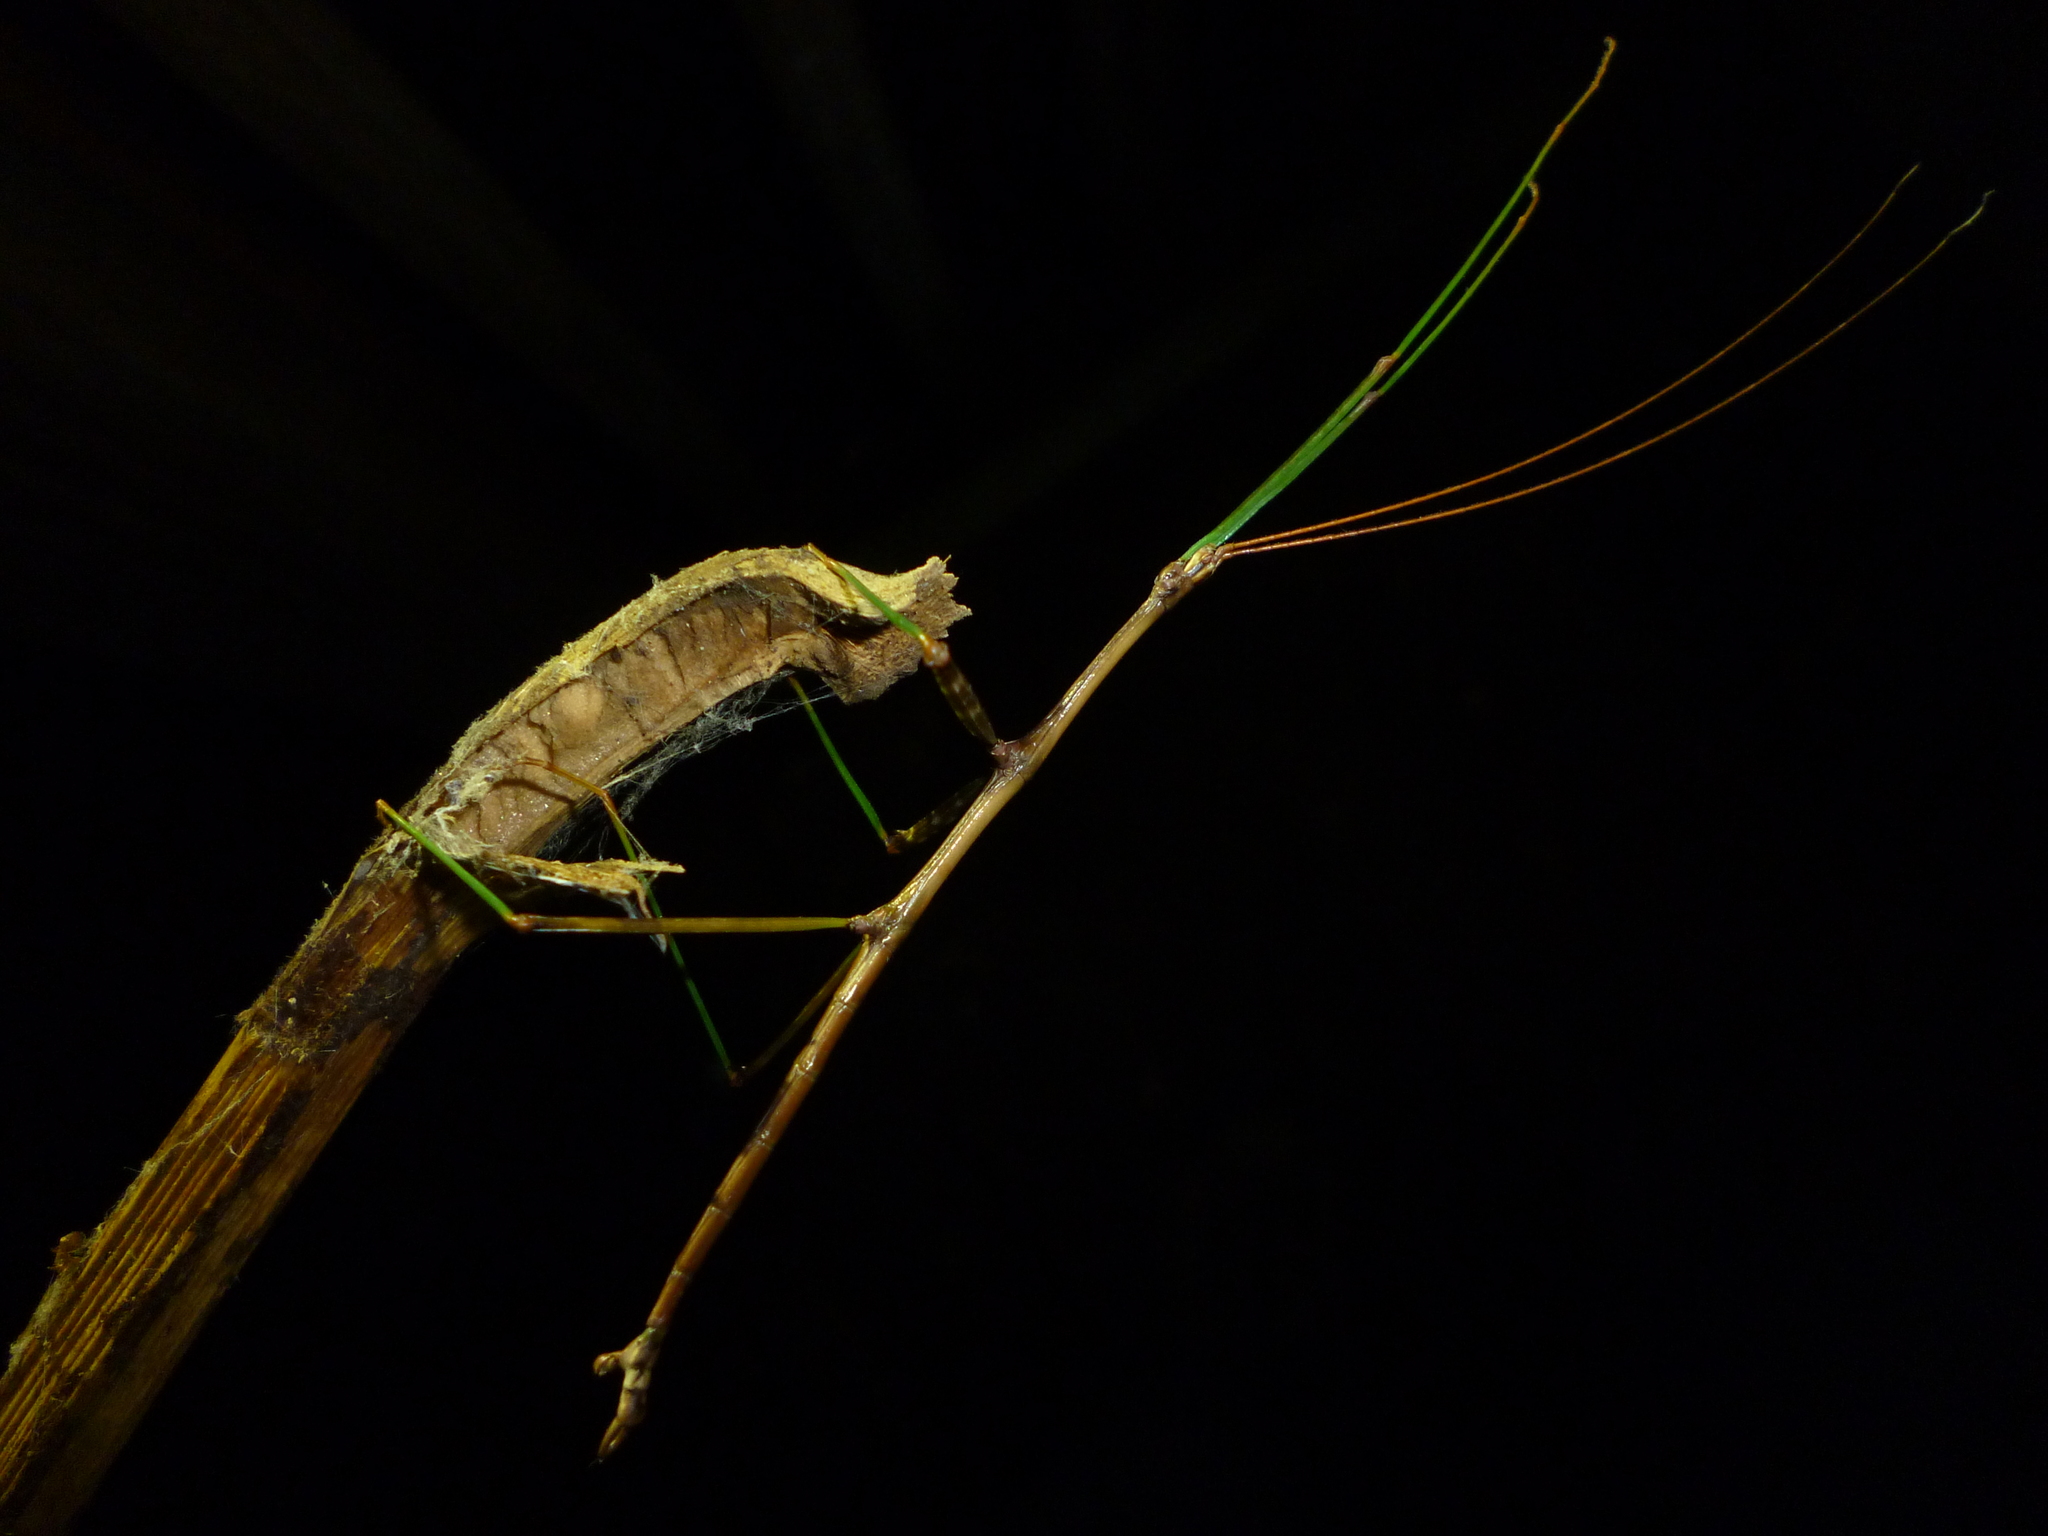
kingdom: Animalia
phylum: Arthropoda
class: Insecta
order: Phasmida
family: Diapheromeridae
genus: Diapheromera
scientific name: Diapheromera femorata
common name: Common american walkingstick
